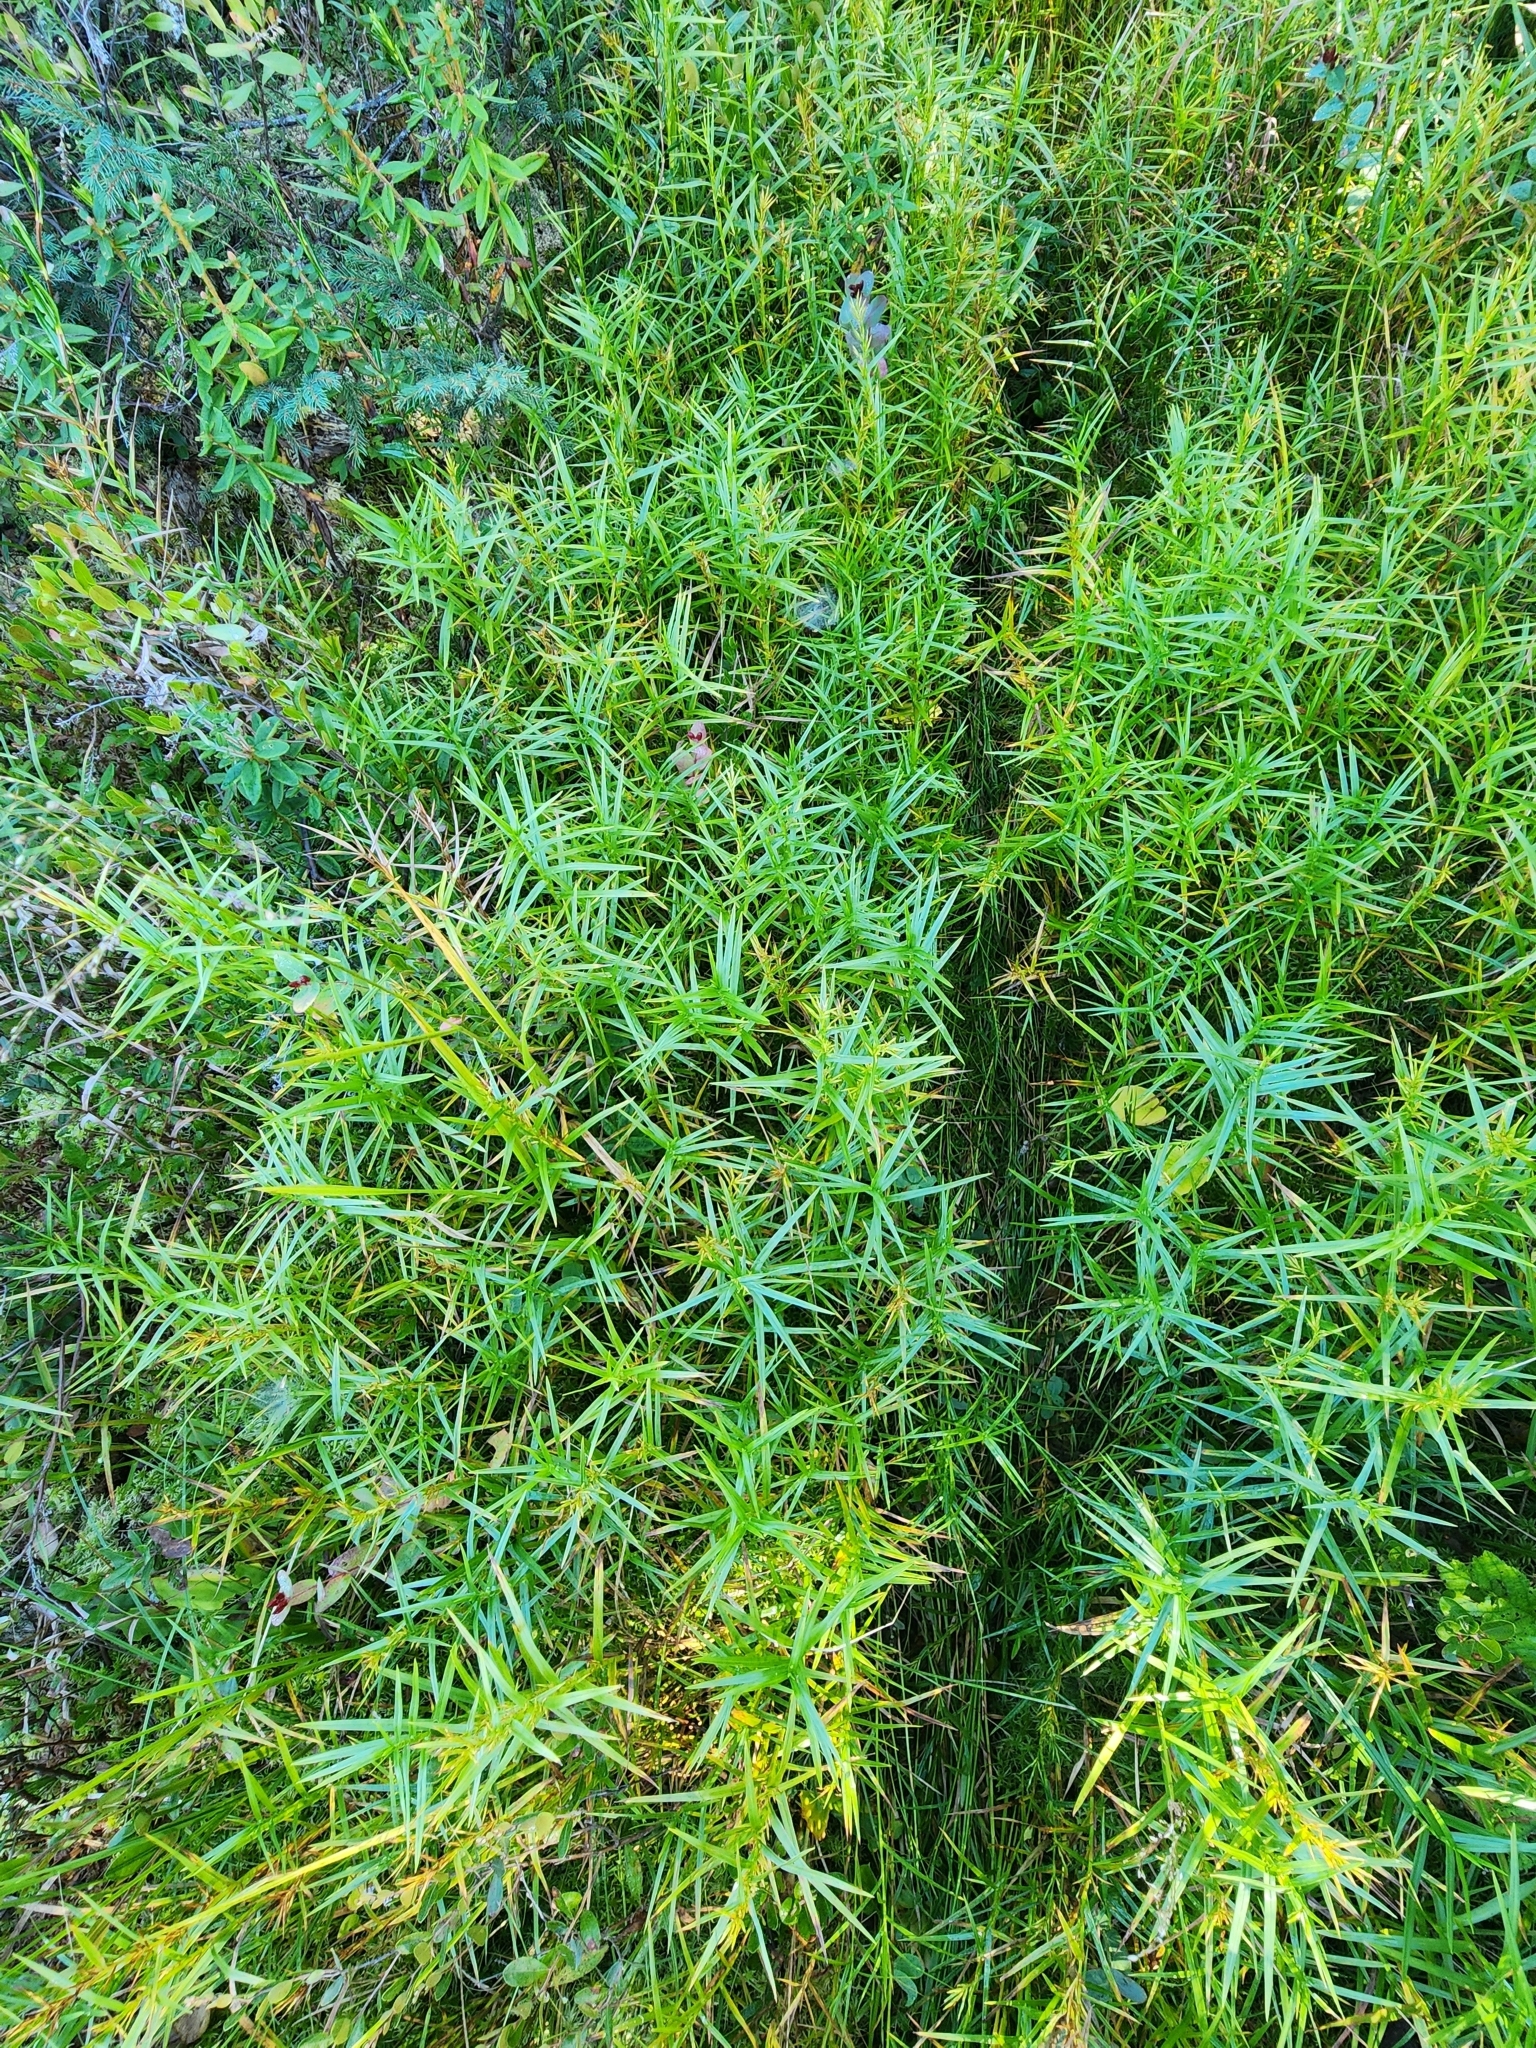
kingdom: Plantae
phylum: Tracheophyta
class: Liliopsida
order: Poales
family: Cyperaceae
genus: Dulichium
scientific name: Dulichium arundinaceum
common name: Three-way sedge
